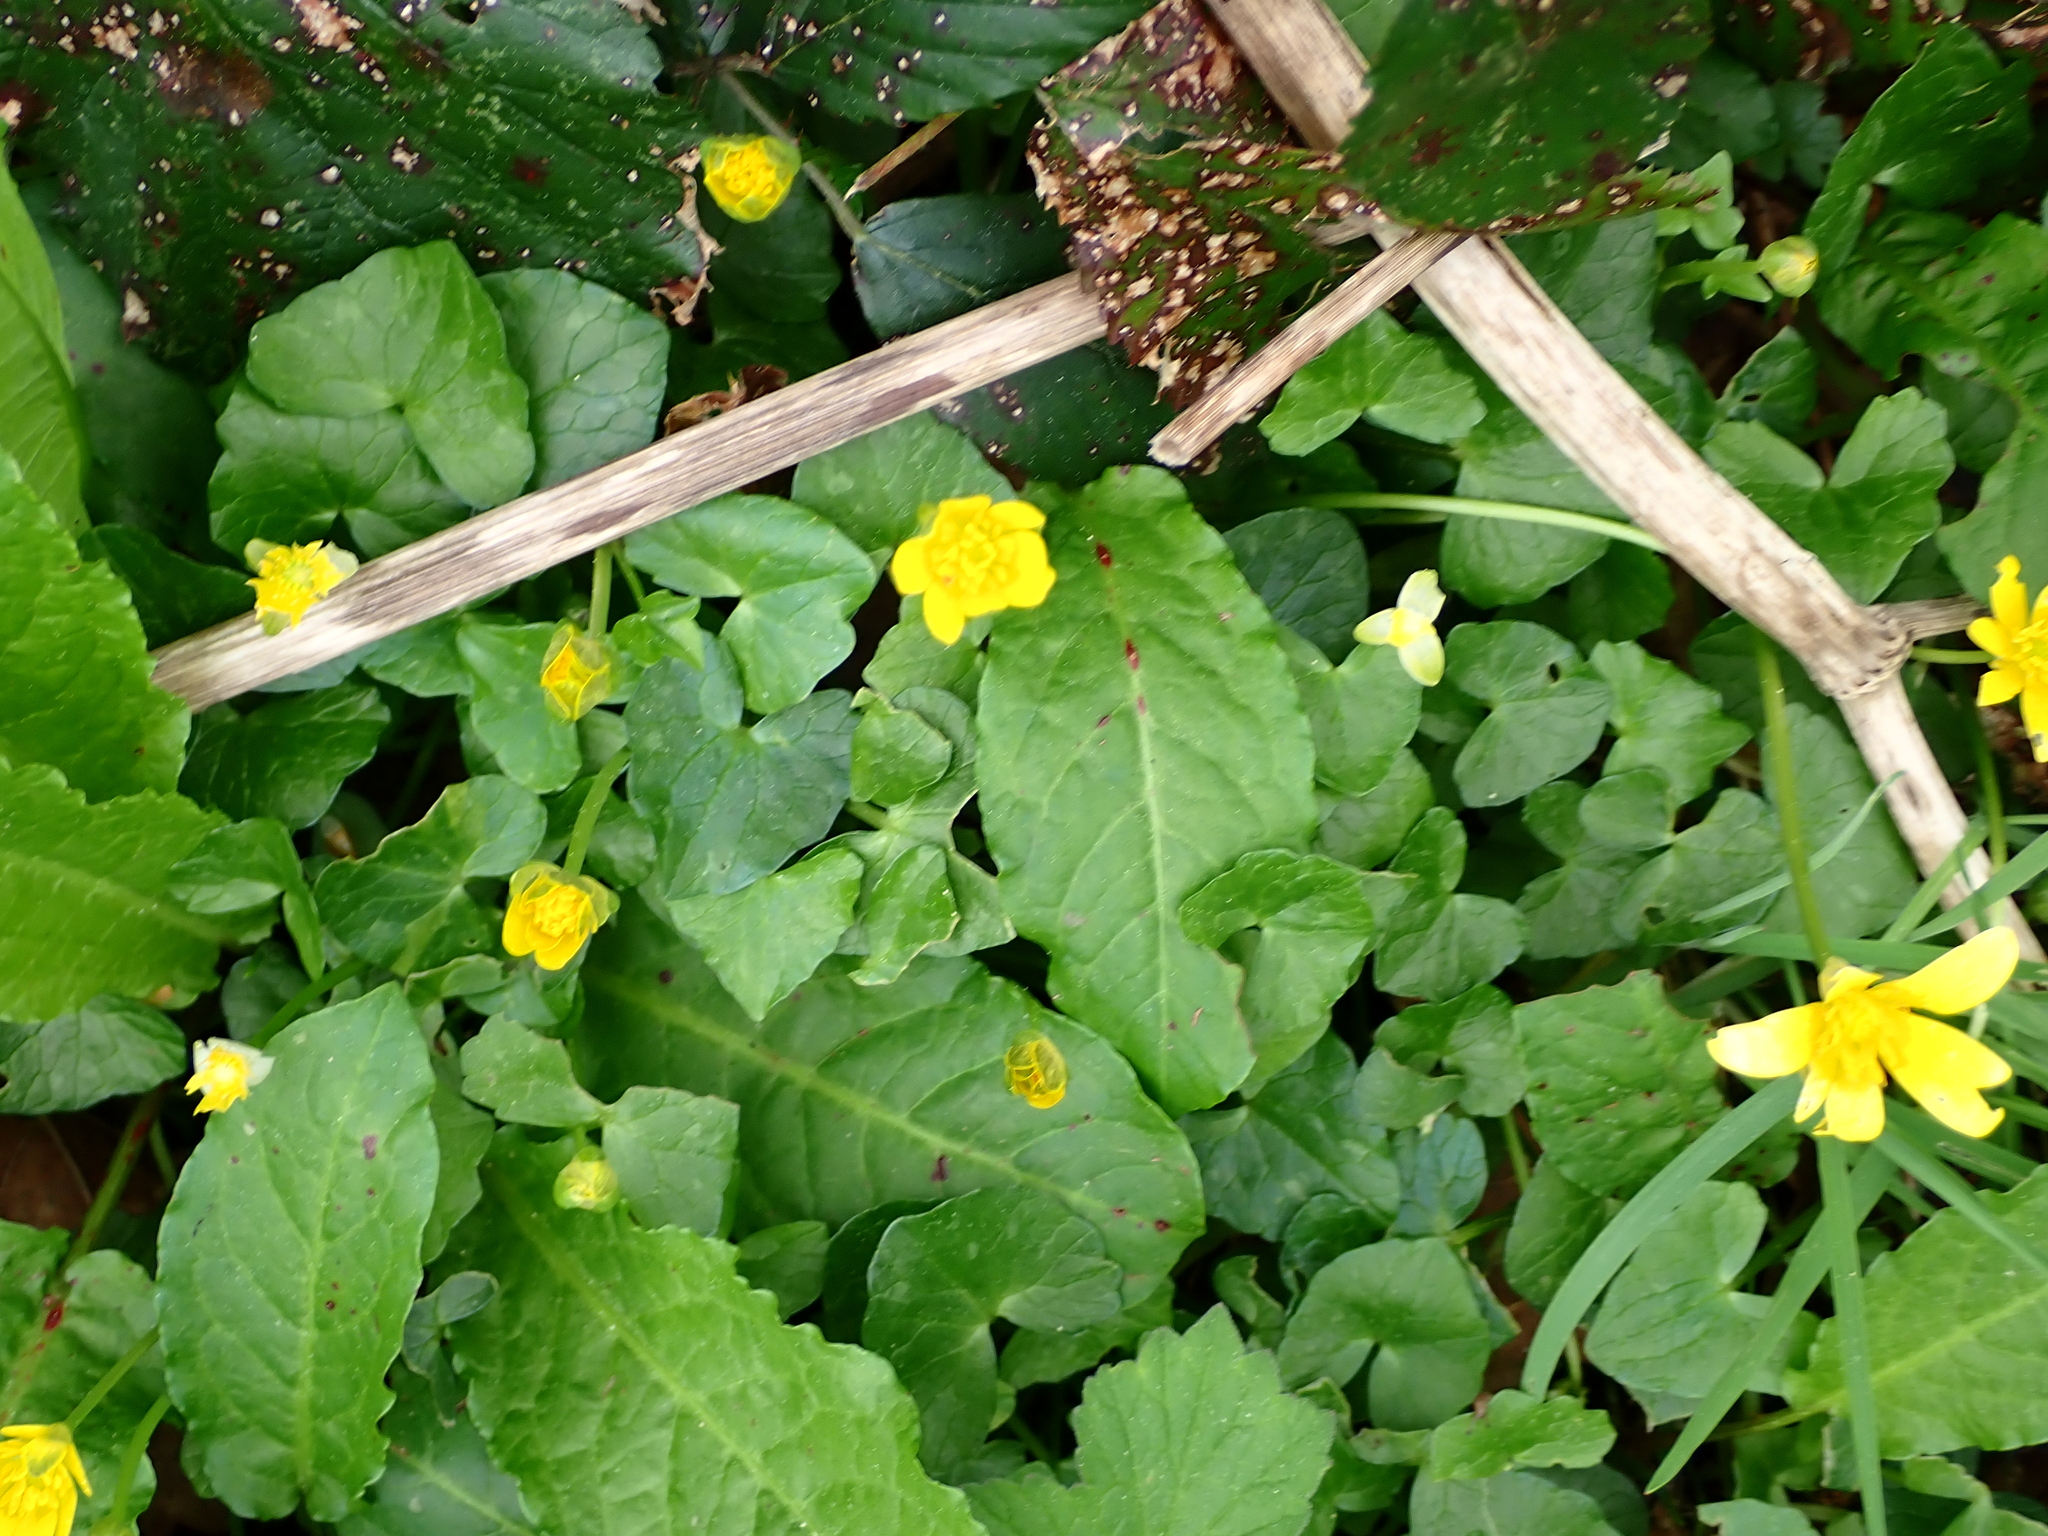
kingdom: Plantae
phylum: Tracheophyta
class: Magnoliopsida
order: Ranunculales
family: Ranunculaceae
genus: Ficaria
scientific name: Ficaria verna
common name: Lesser celandine
